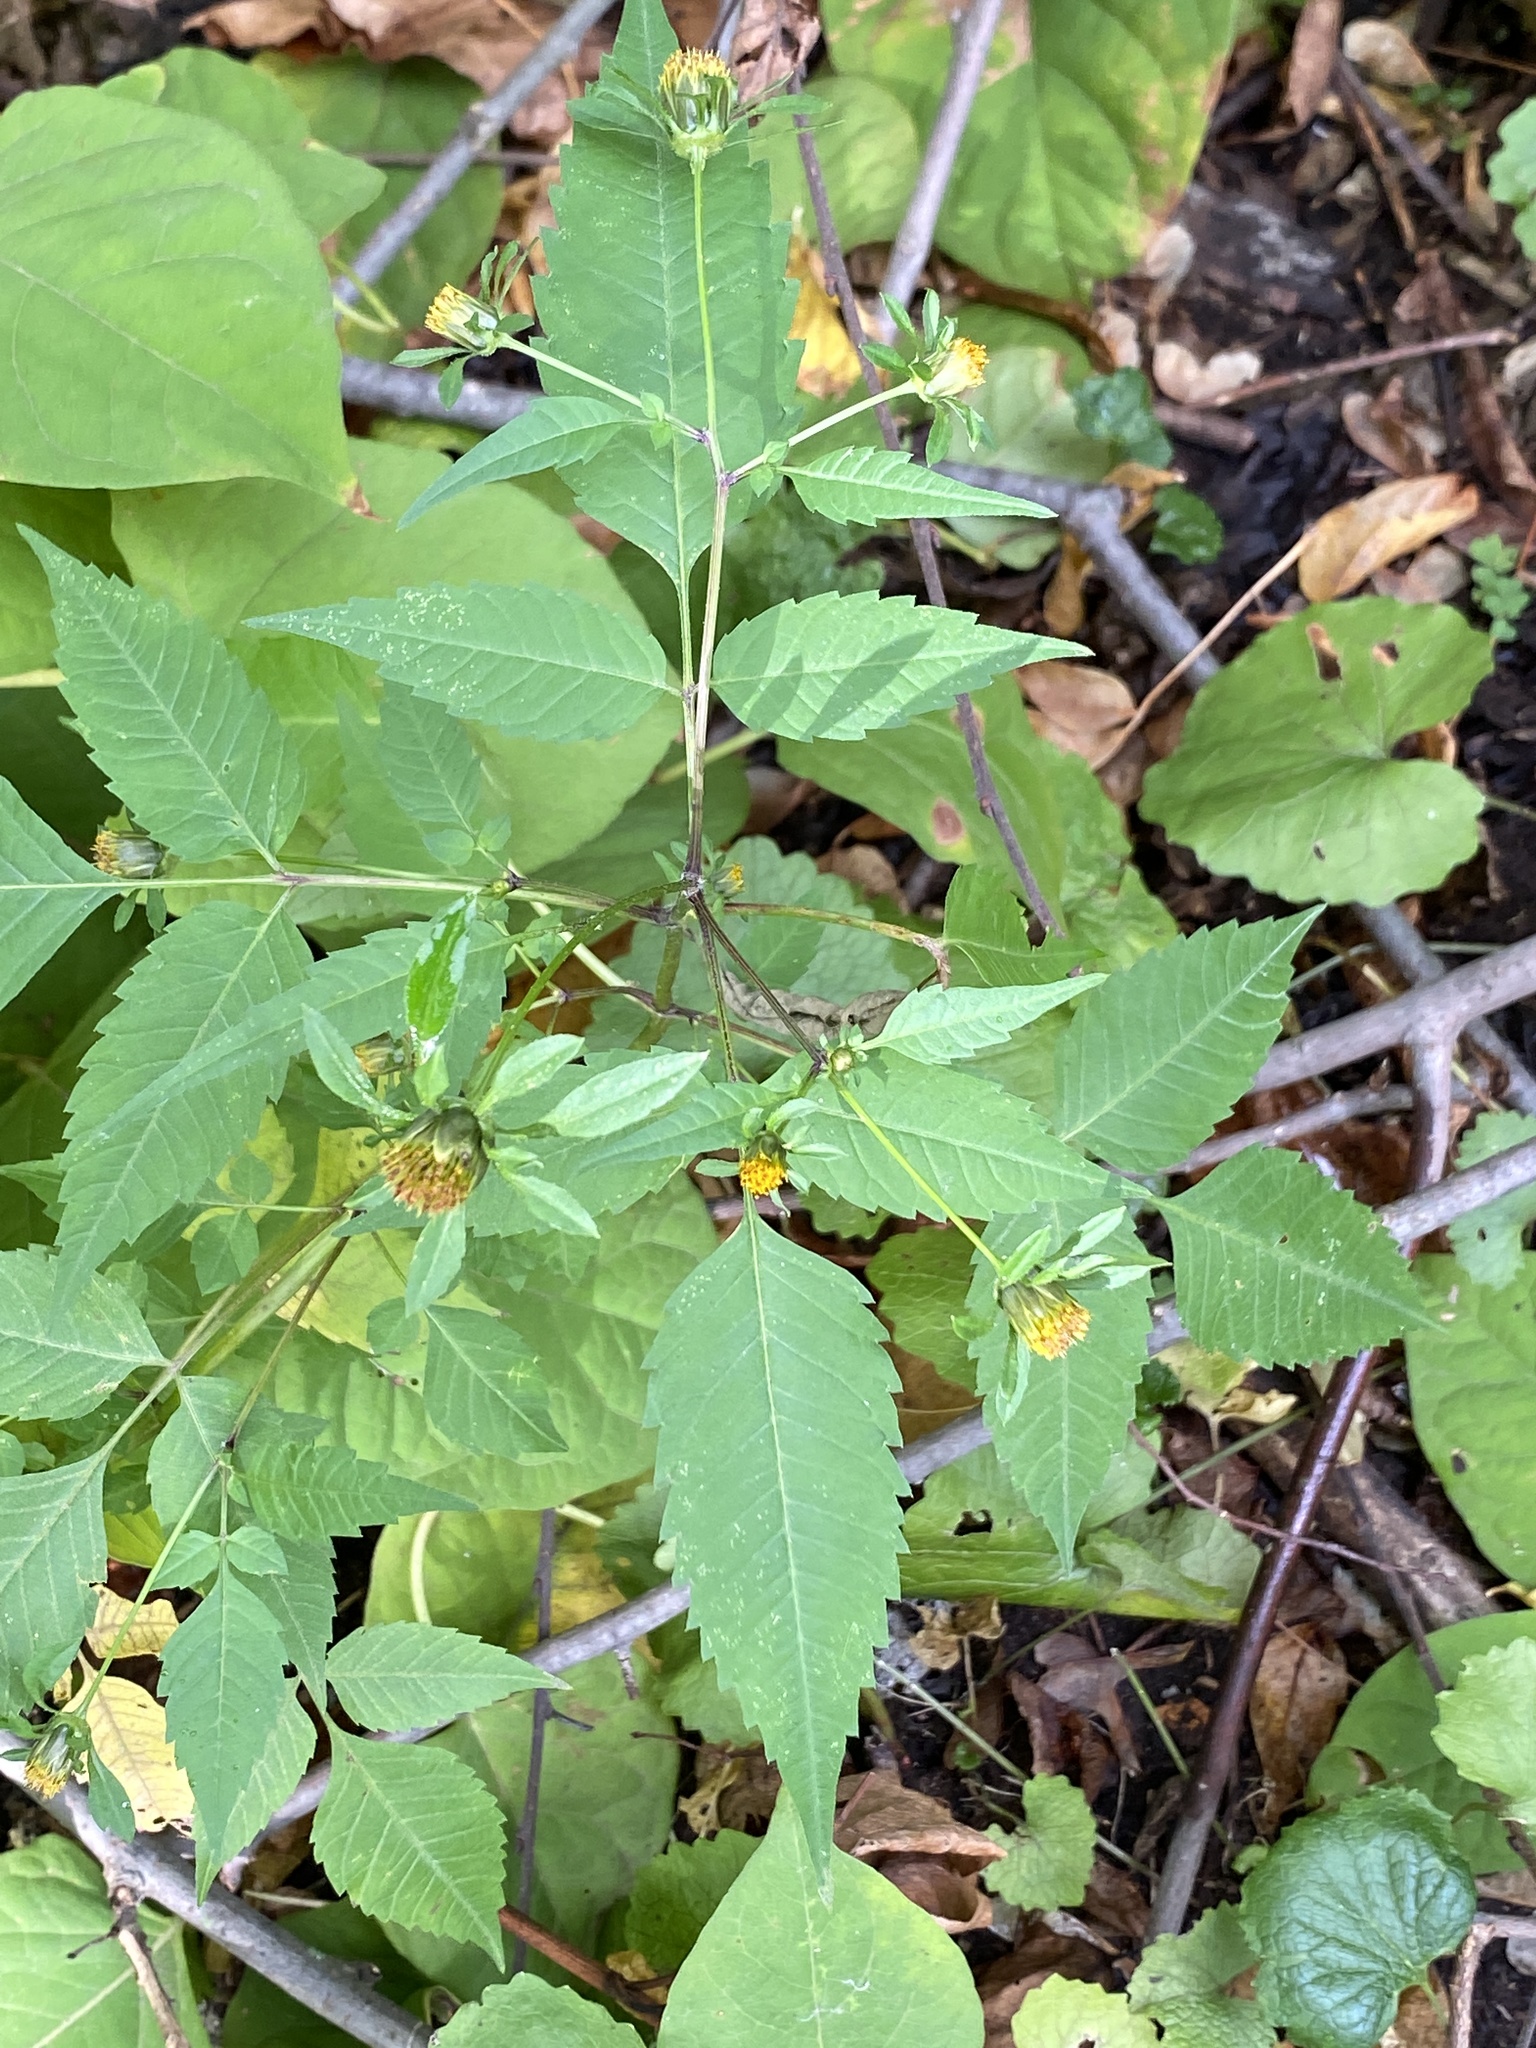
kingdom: Plantae
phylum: Tracheophyta
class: Magnoliopsida
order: Asterales
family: Asteraceae
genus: Bidens
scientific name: Bidens frondosa
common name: Beggarticks
